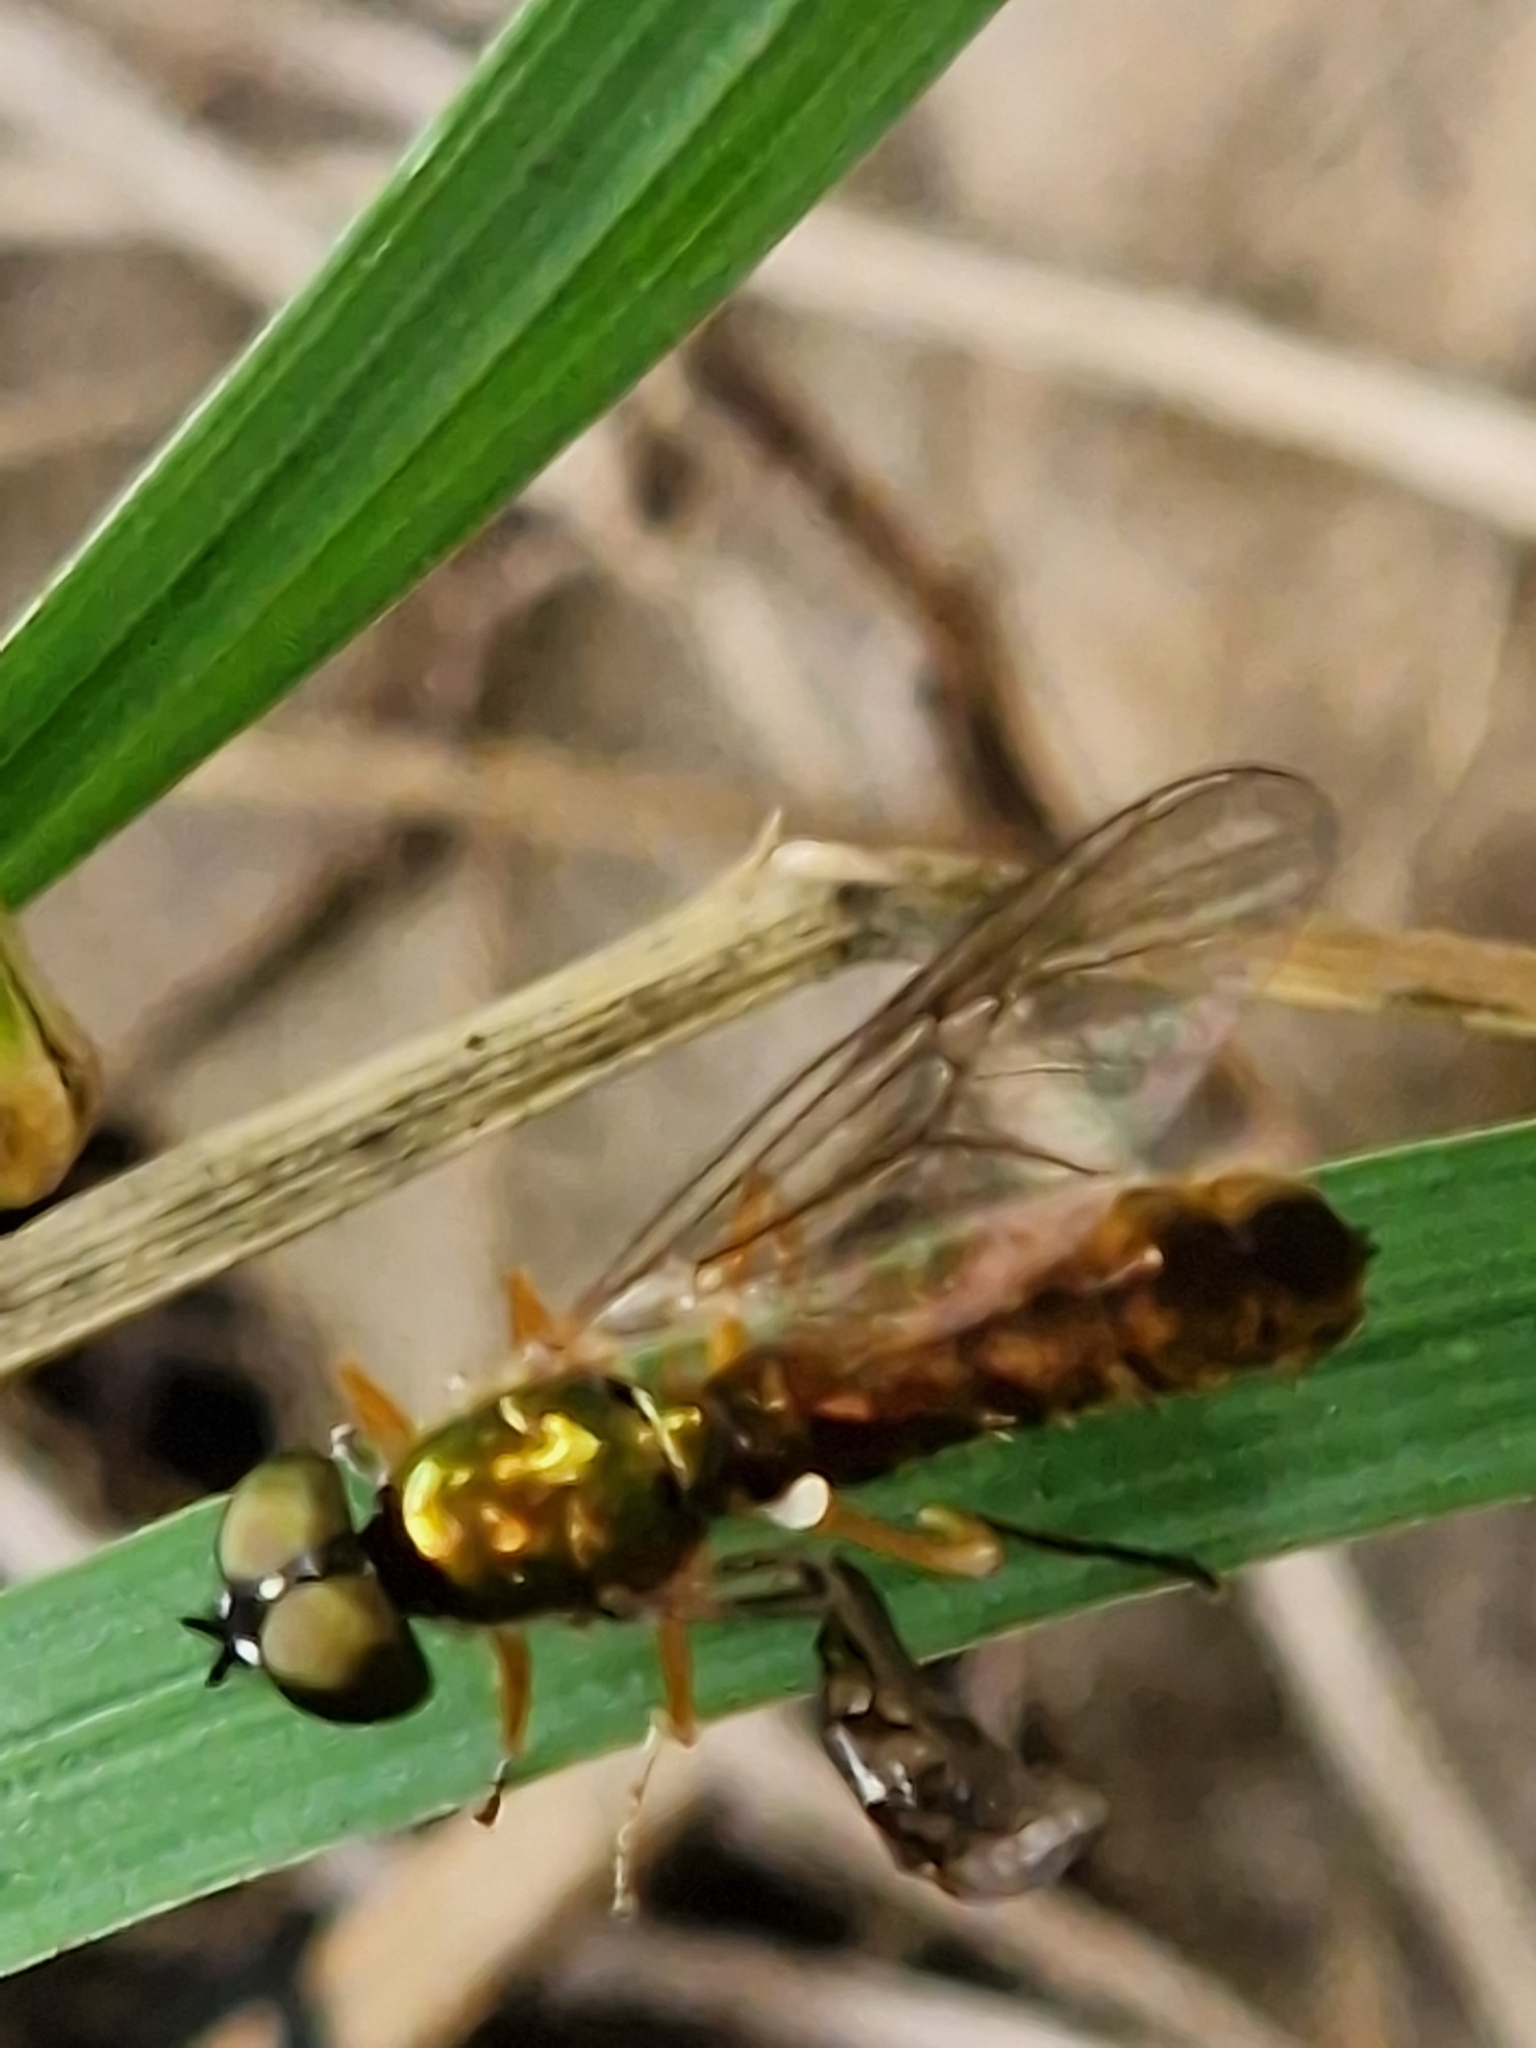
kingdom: Animalia
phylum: Arthropoda
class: Insecta
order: Diptera
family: Stratiomyidae
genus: Sargus
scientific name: Sargus bipunctatus
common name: Twin-spot centurion
